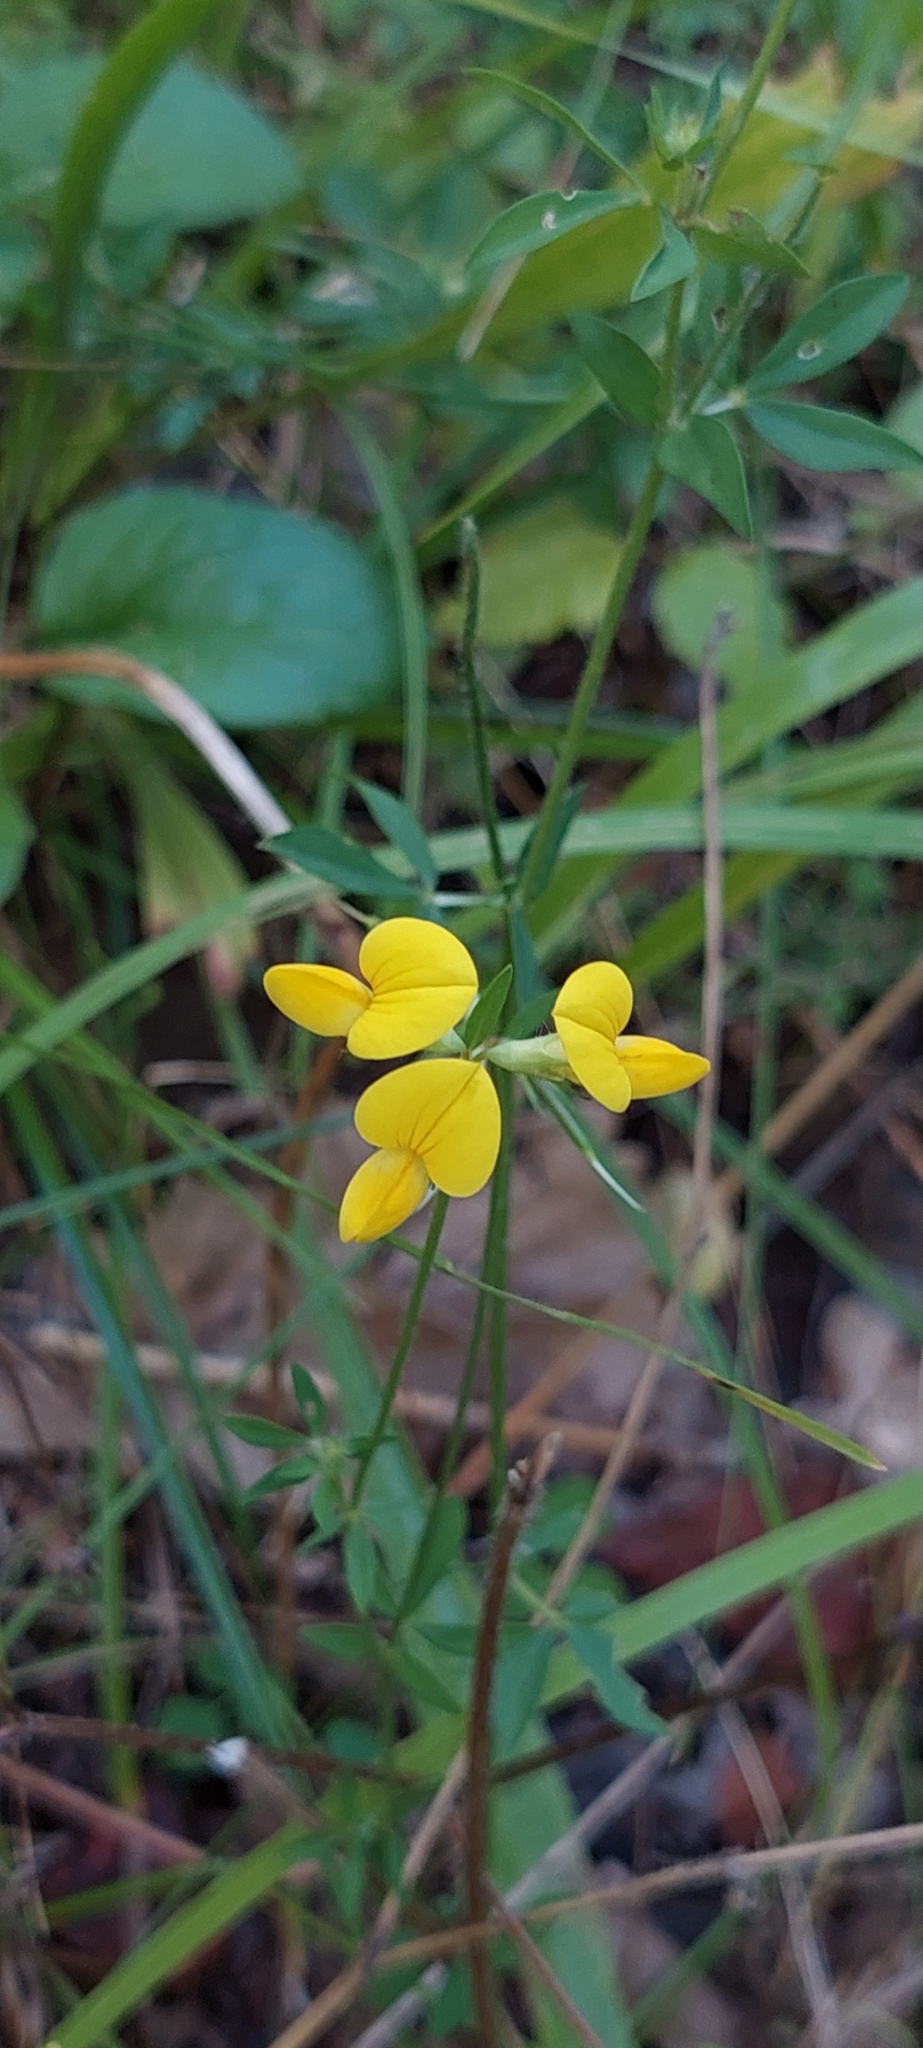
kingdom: Plantae
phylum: Tracheophyta
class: Magnoliopsida
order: Fabales
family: Fabaceae
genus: Lotus
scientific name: Lotus corniculatus
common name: Common bird's-foot-trefoil
